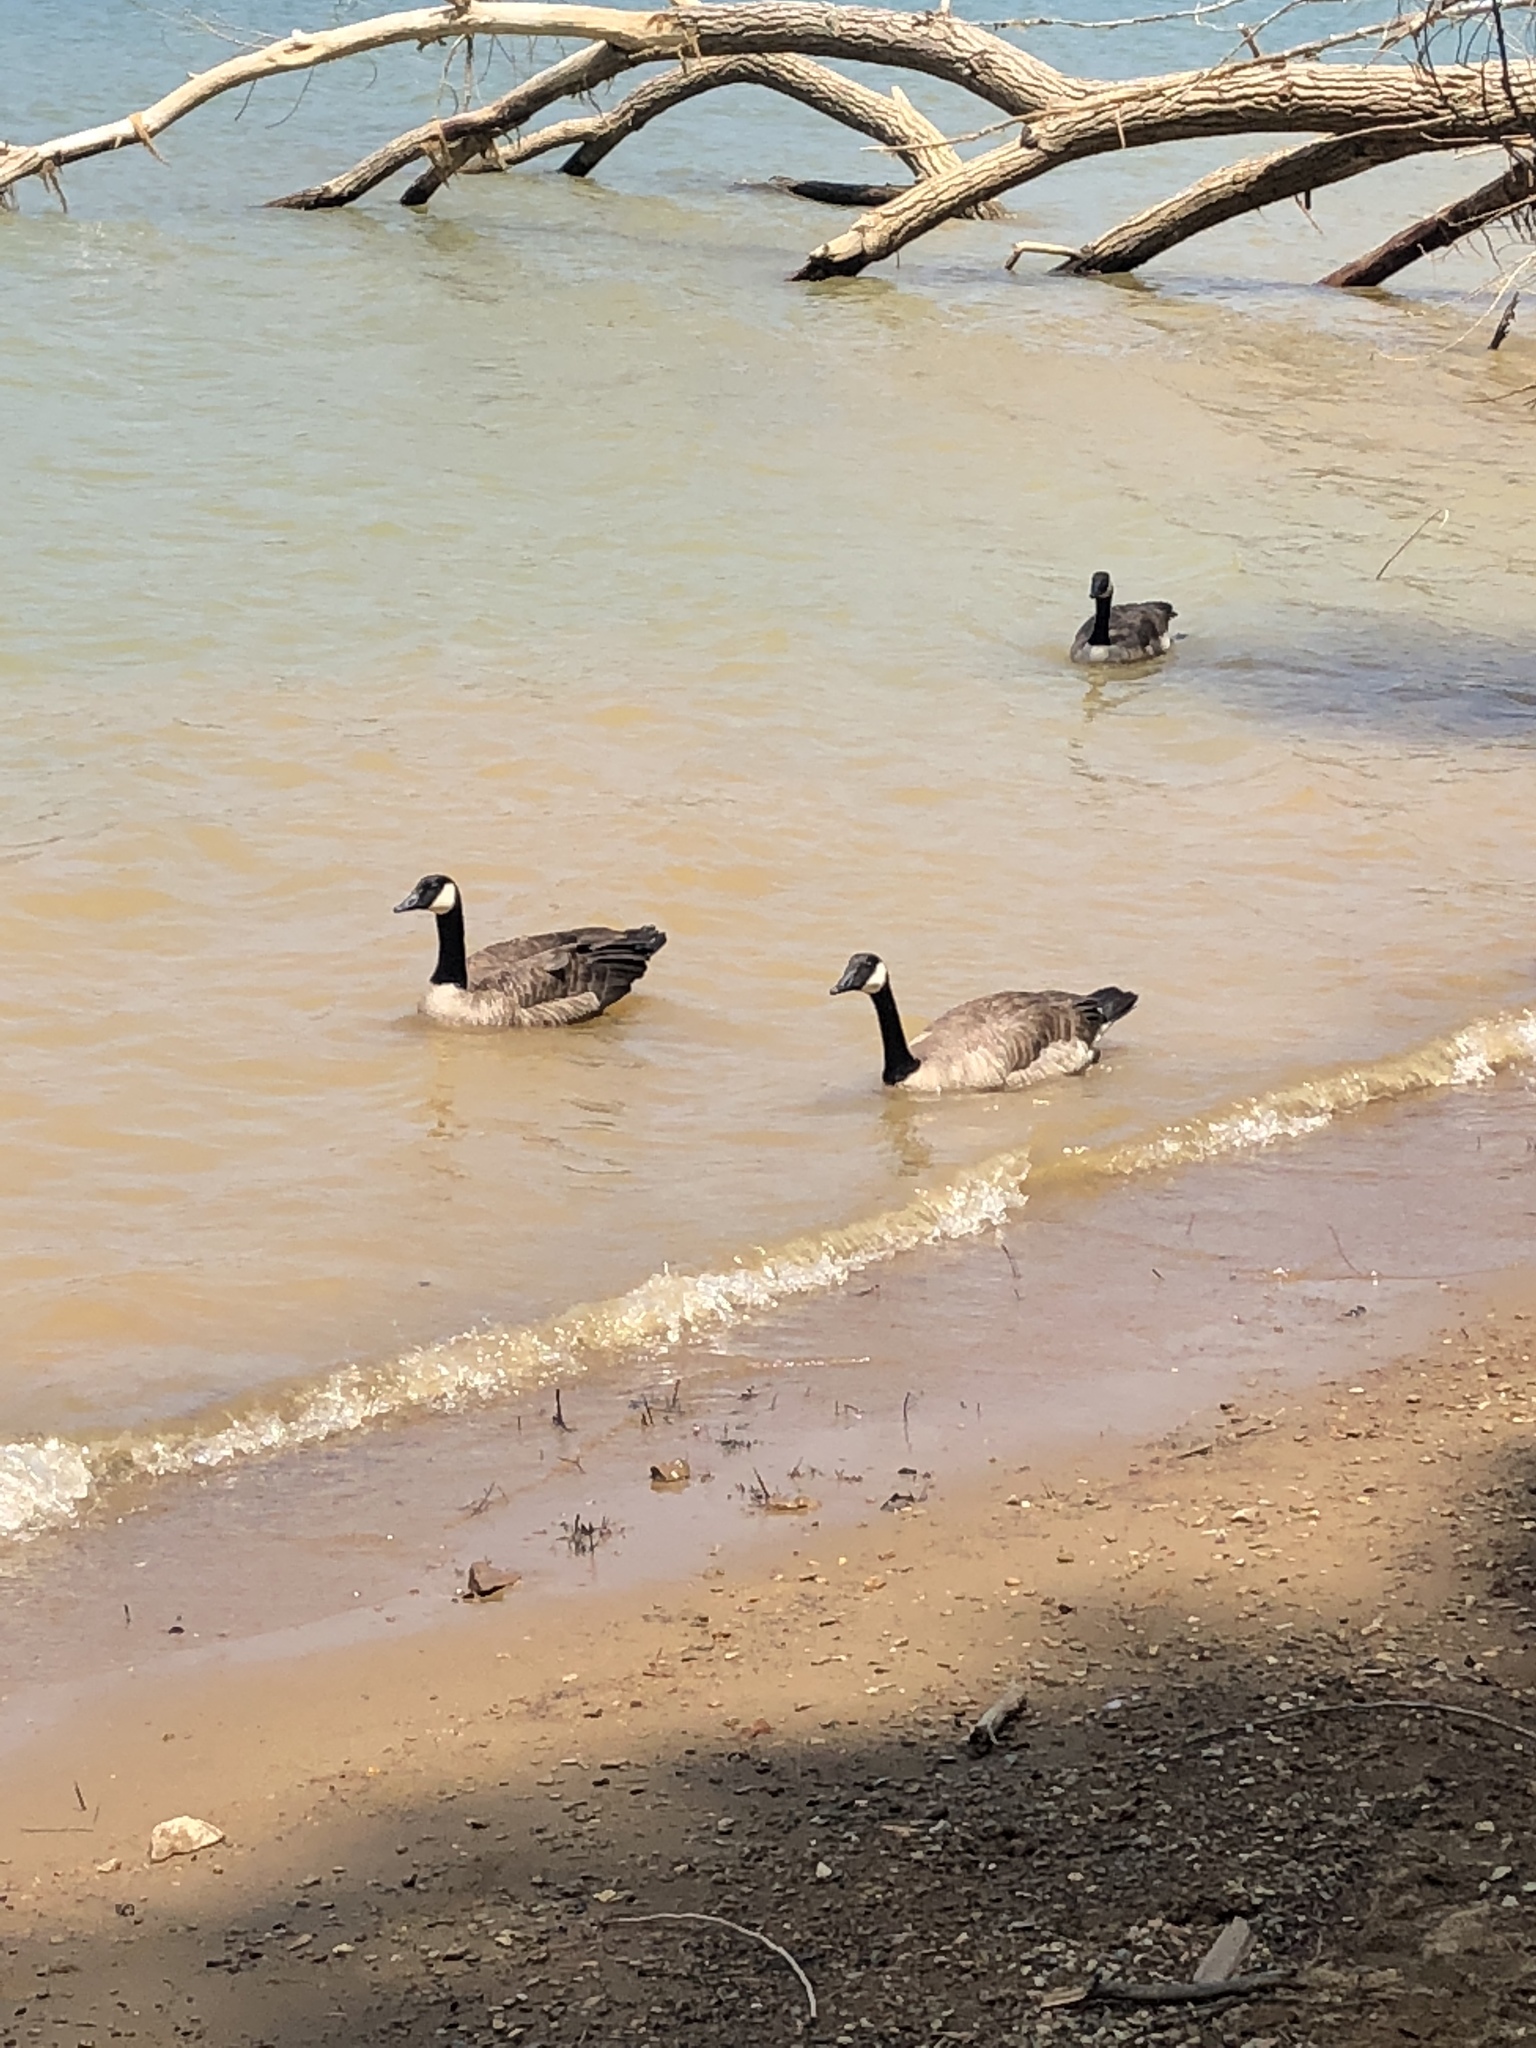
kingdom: Animalia
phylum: Chordata
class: Aves
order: Anseriformes
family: Anatidae
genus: Branta
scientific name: Branta canadensis
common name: Canada goose
